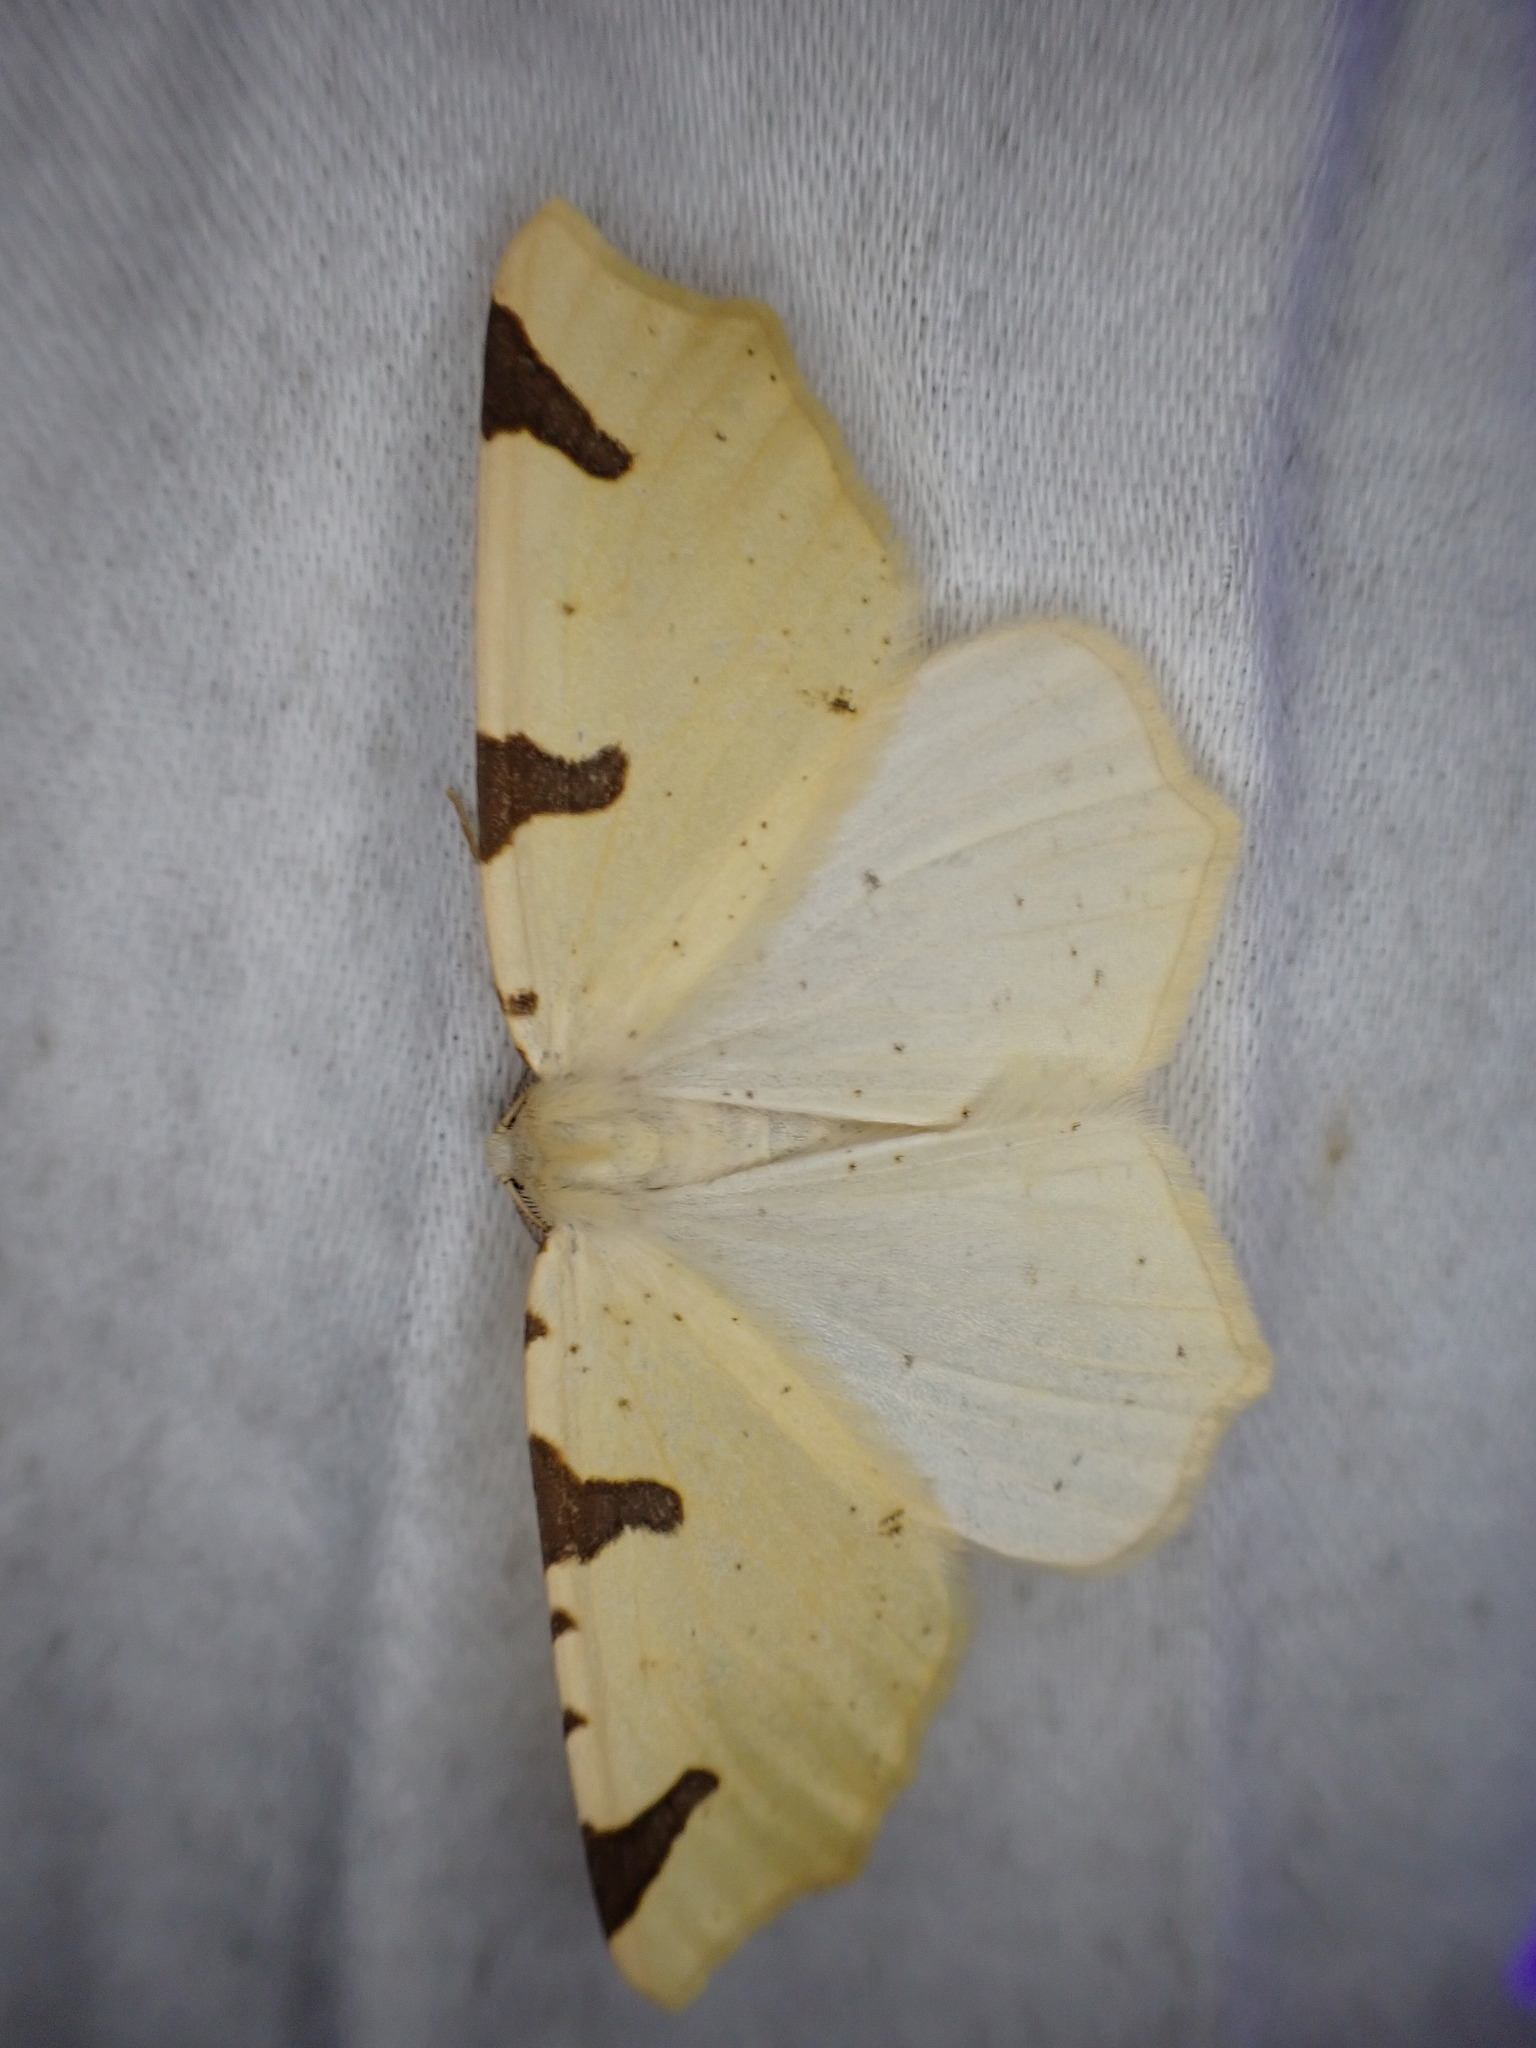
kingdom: Animalia
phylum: Arthropoda
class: Insecta
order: Lepidoptera
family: Geometridae
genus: Neoterpes
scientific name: Neoterpes trianguliferata
